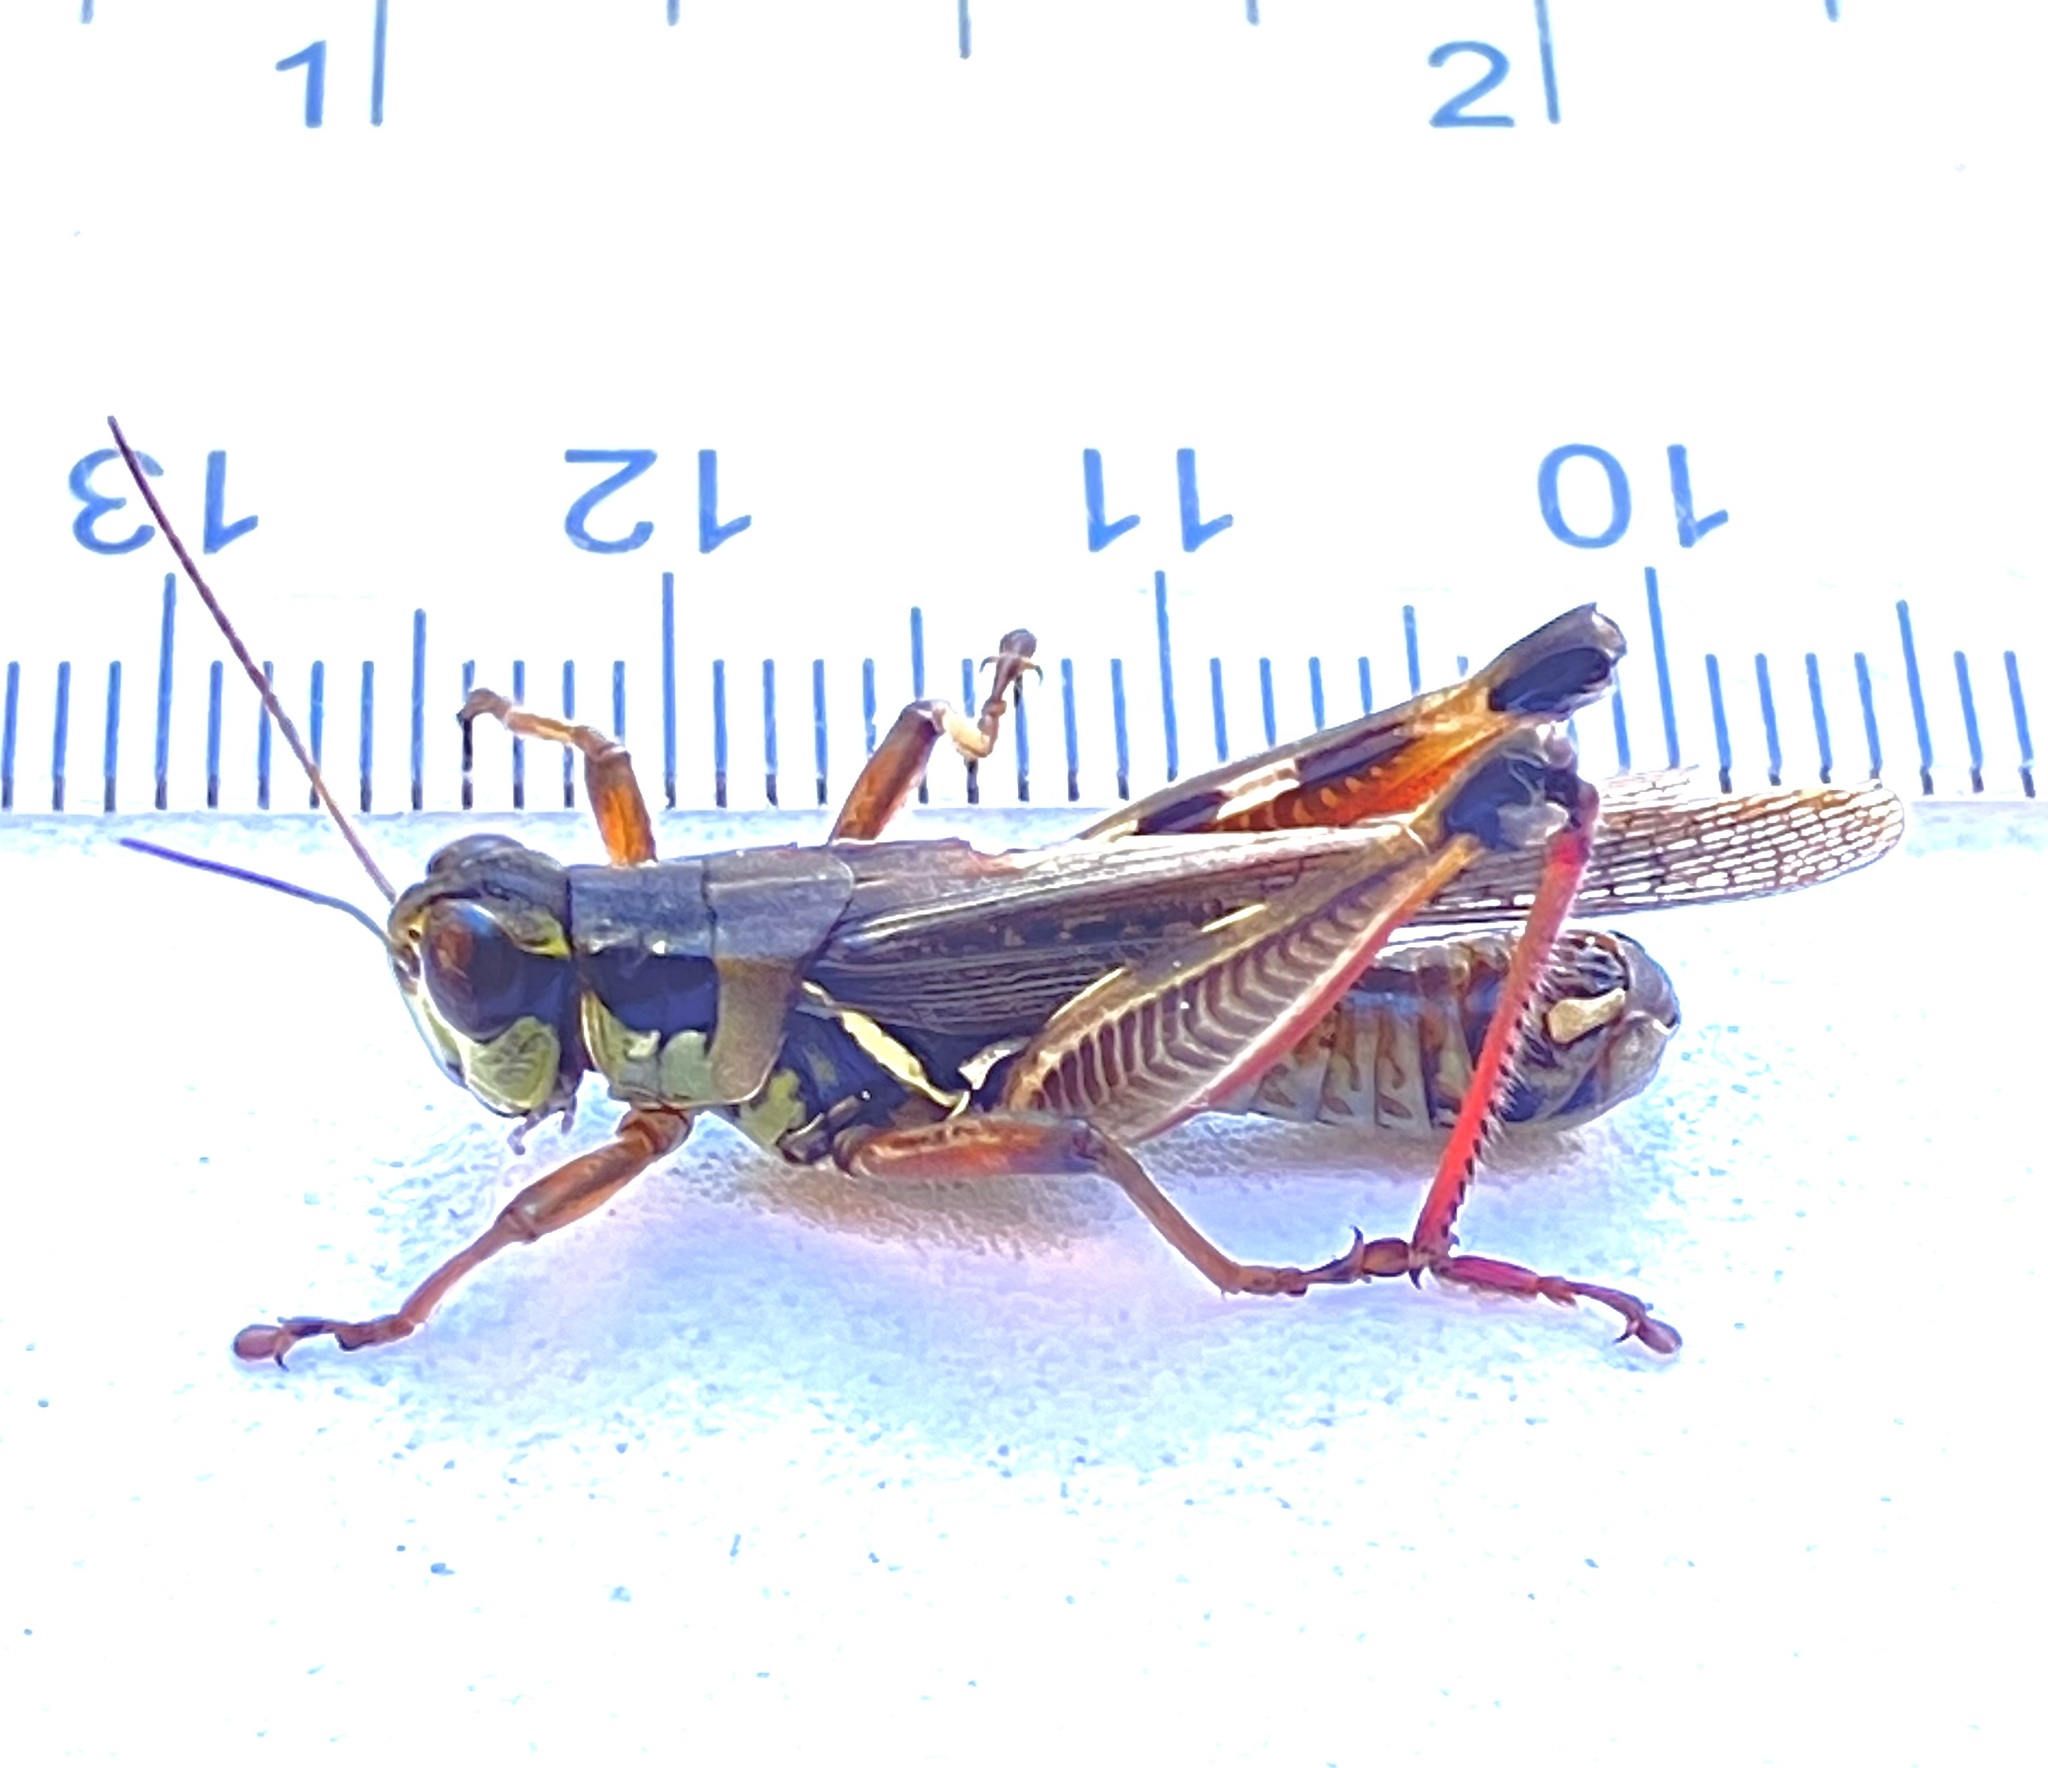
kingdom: Animalia
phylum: Arthropoda
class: Insecta
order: Orthoptera
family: Acrididae
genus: Melanoplus
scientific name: Melanoplus femurrubrum
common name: Red-legged grasshopper
